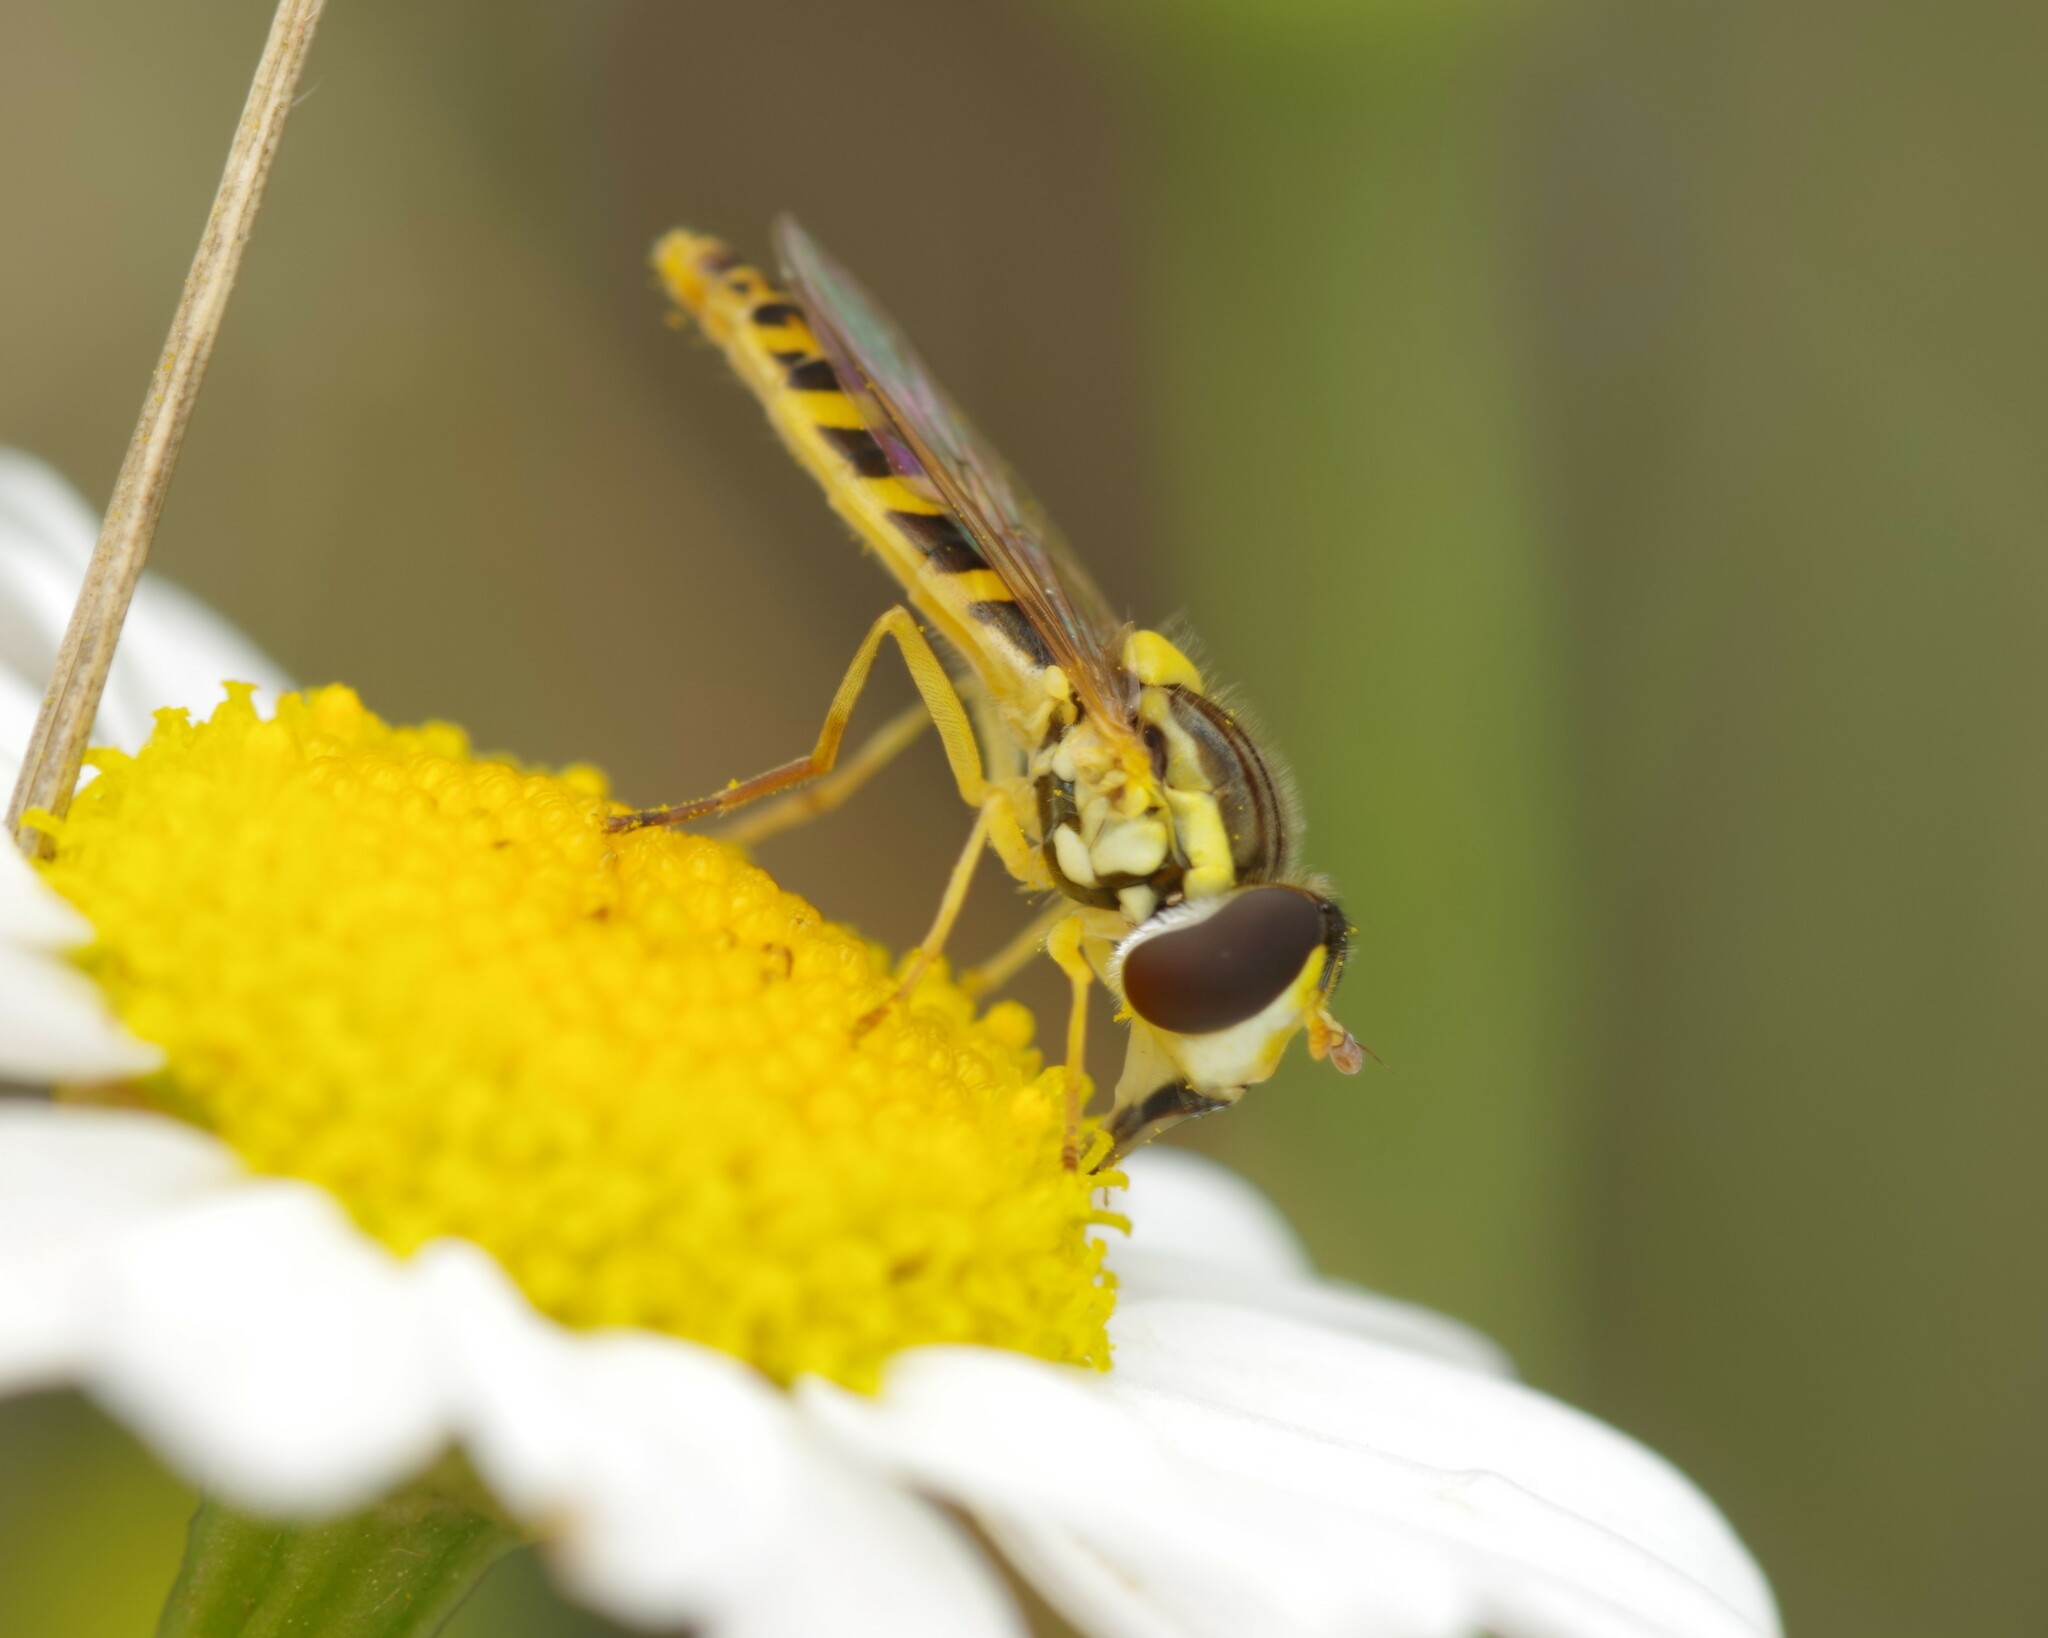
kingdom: Animalia
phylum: Arthropoda
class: Insecta
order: Diptera
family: Syrphidae
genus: Sphaerophoria
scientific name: Sphaerophoria
